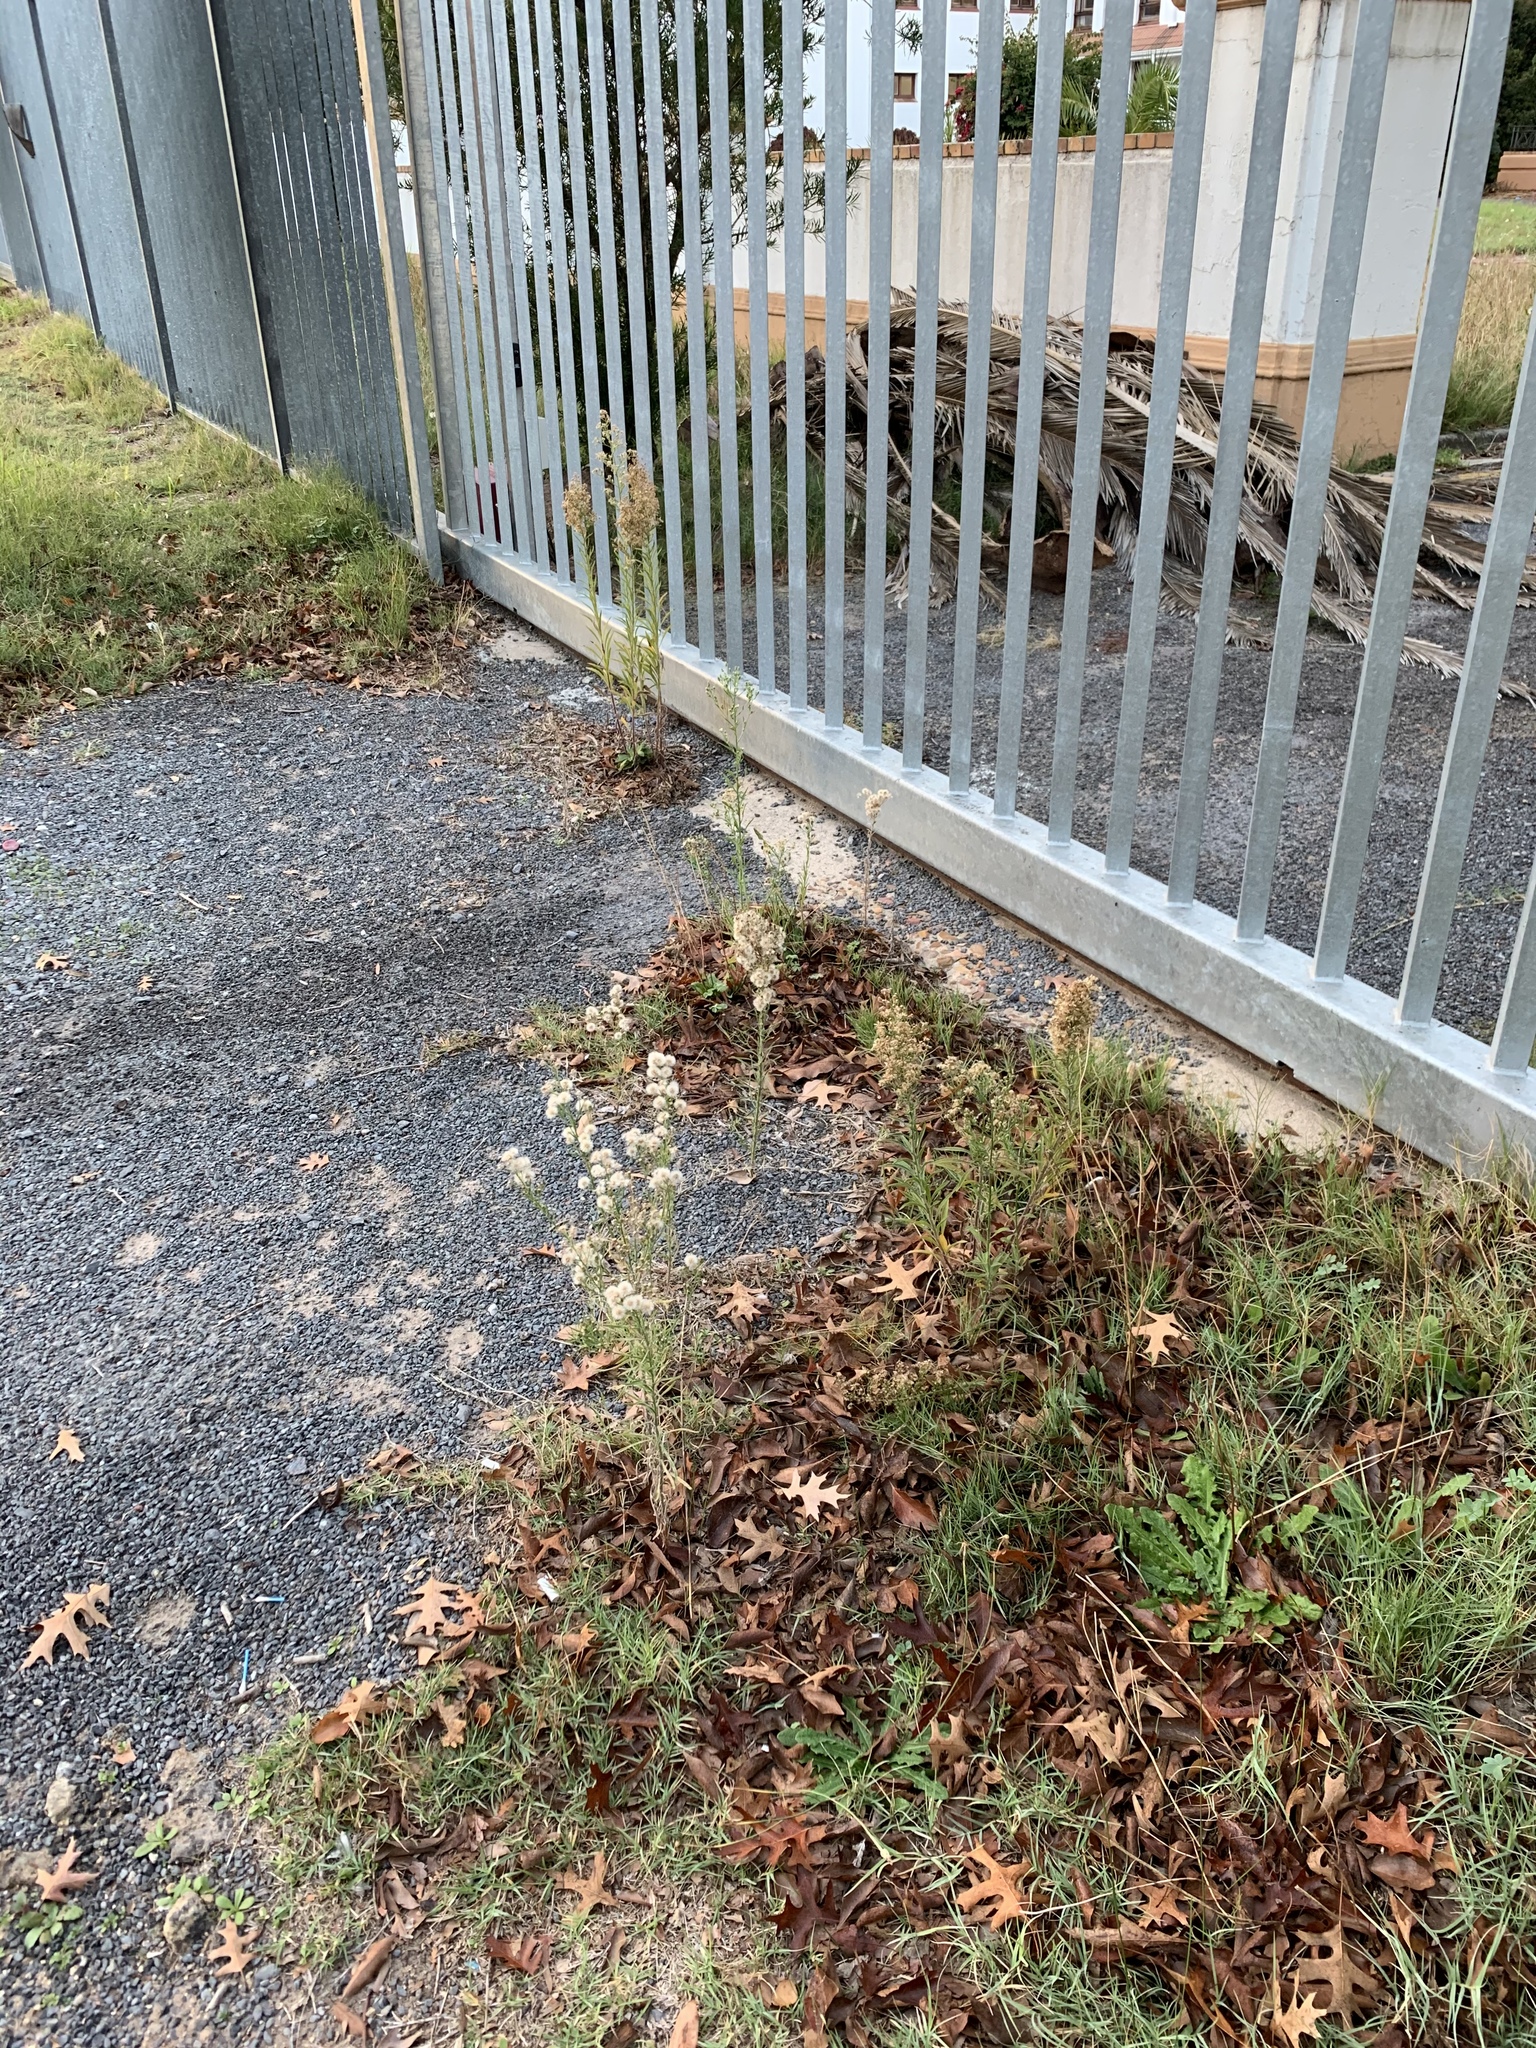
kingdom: Plantae
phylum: Tracheophyta
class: Magnoliopsida
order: Asterales
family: Asteraceae
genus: Erigeron
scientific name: Erigeron bonariensis
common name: Argentine fleabane
